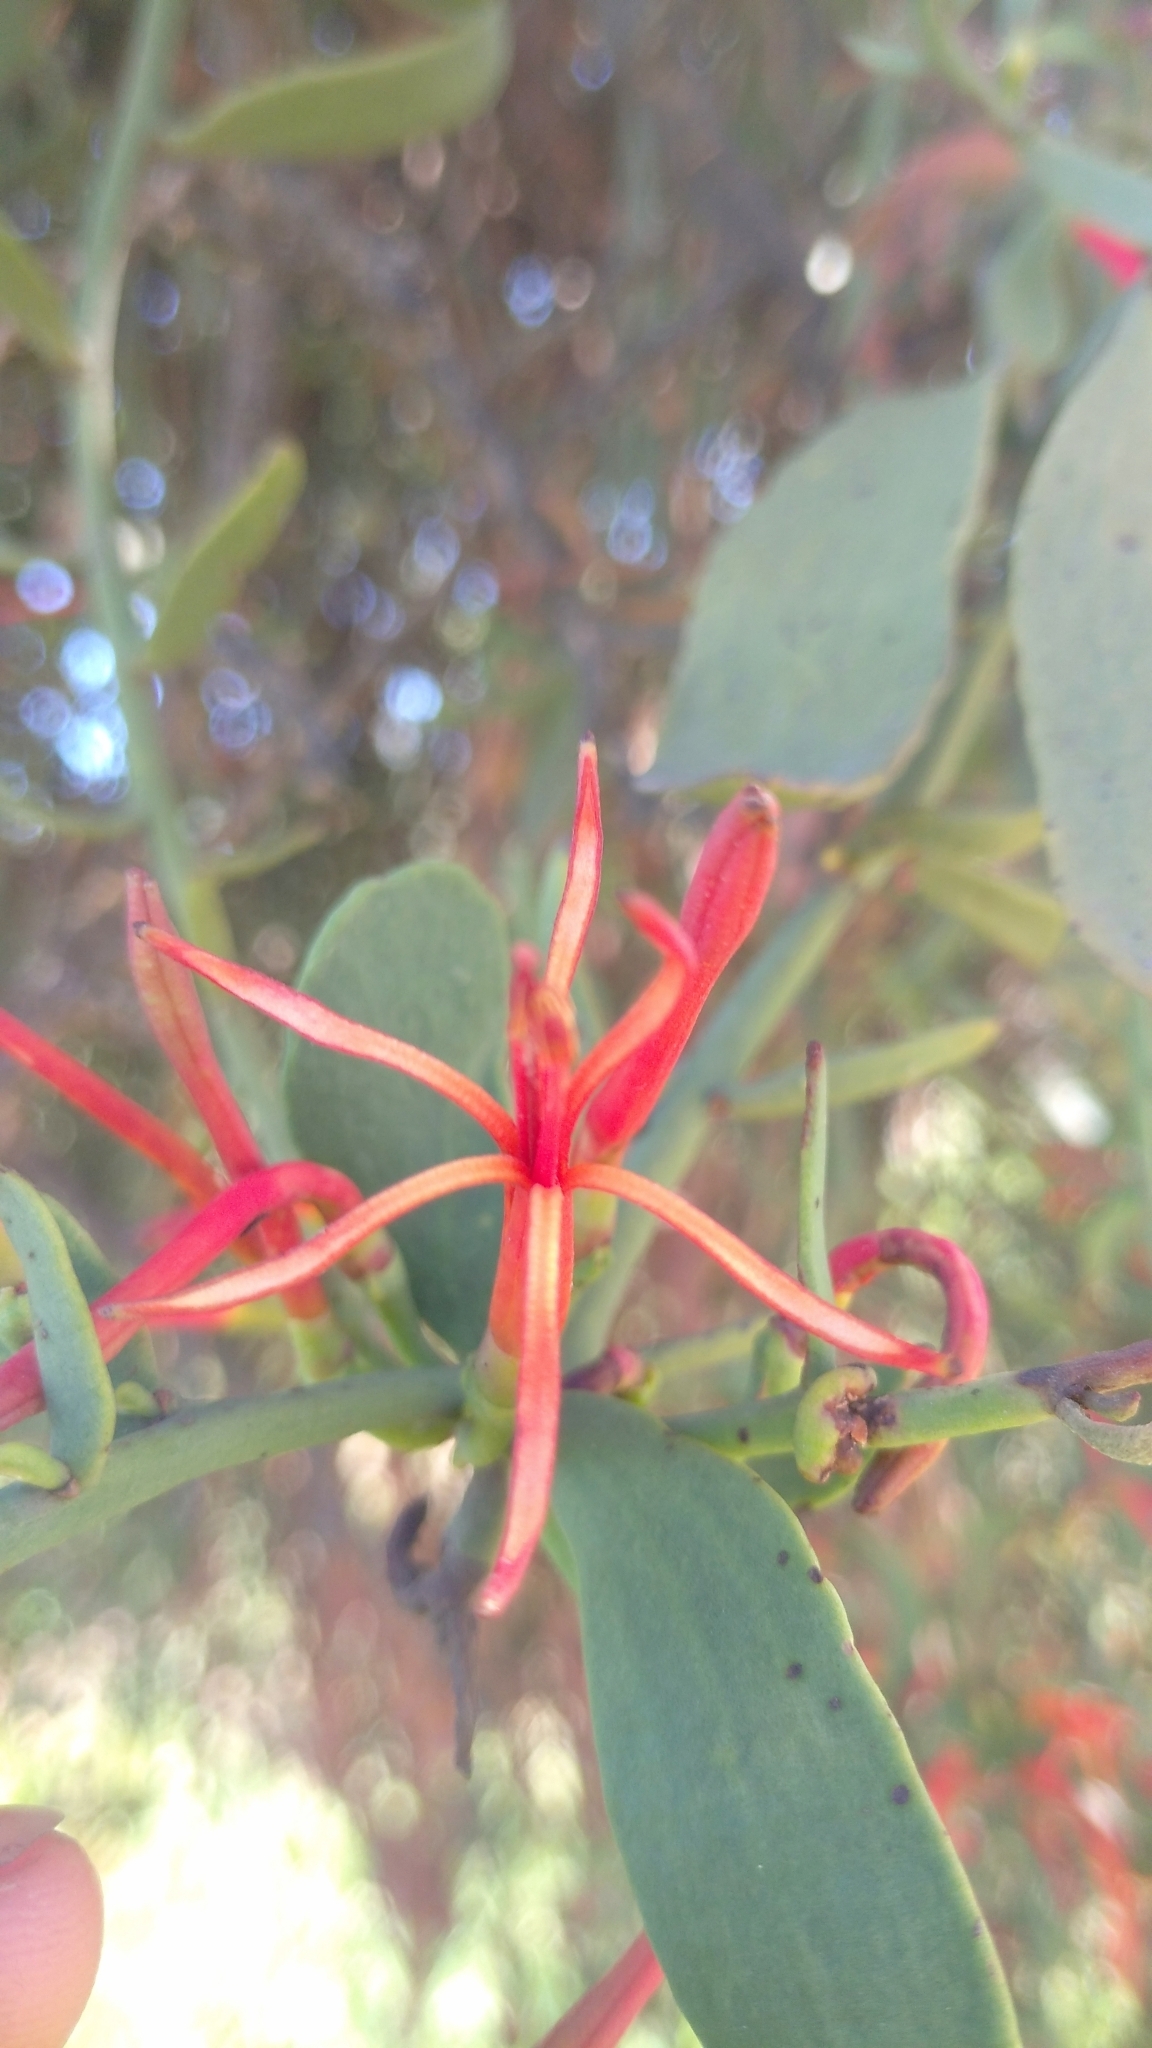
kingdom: Plantae
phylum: Tracheophyta
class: Magnoliopsida
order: Santalales
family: Loranthaceae
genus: Ligaria
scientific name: Ligaria cuneifolia
